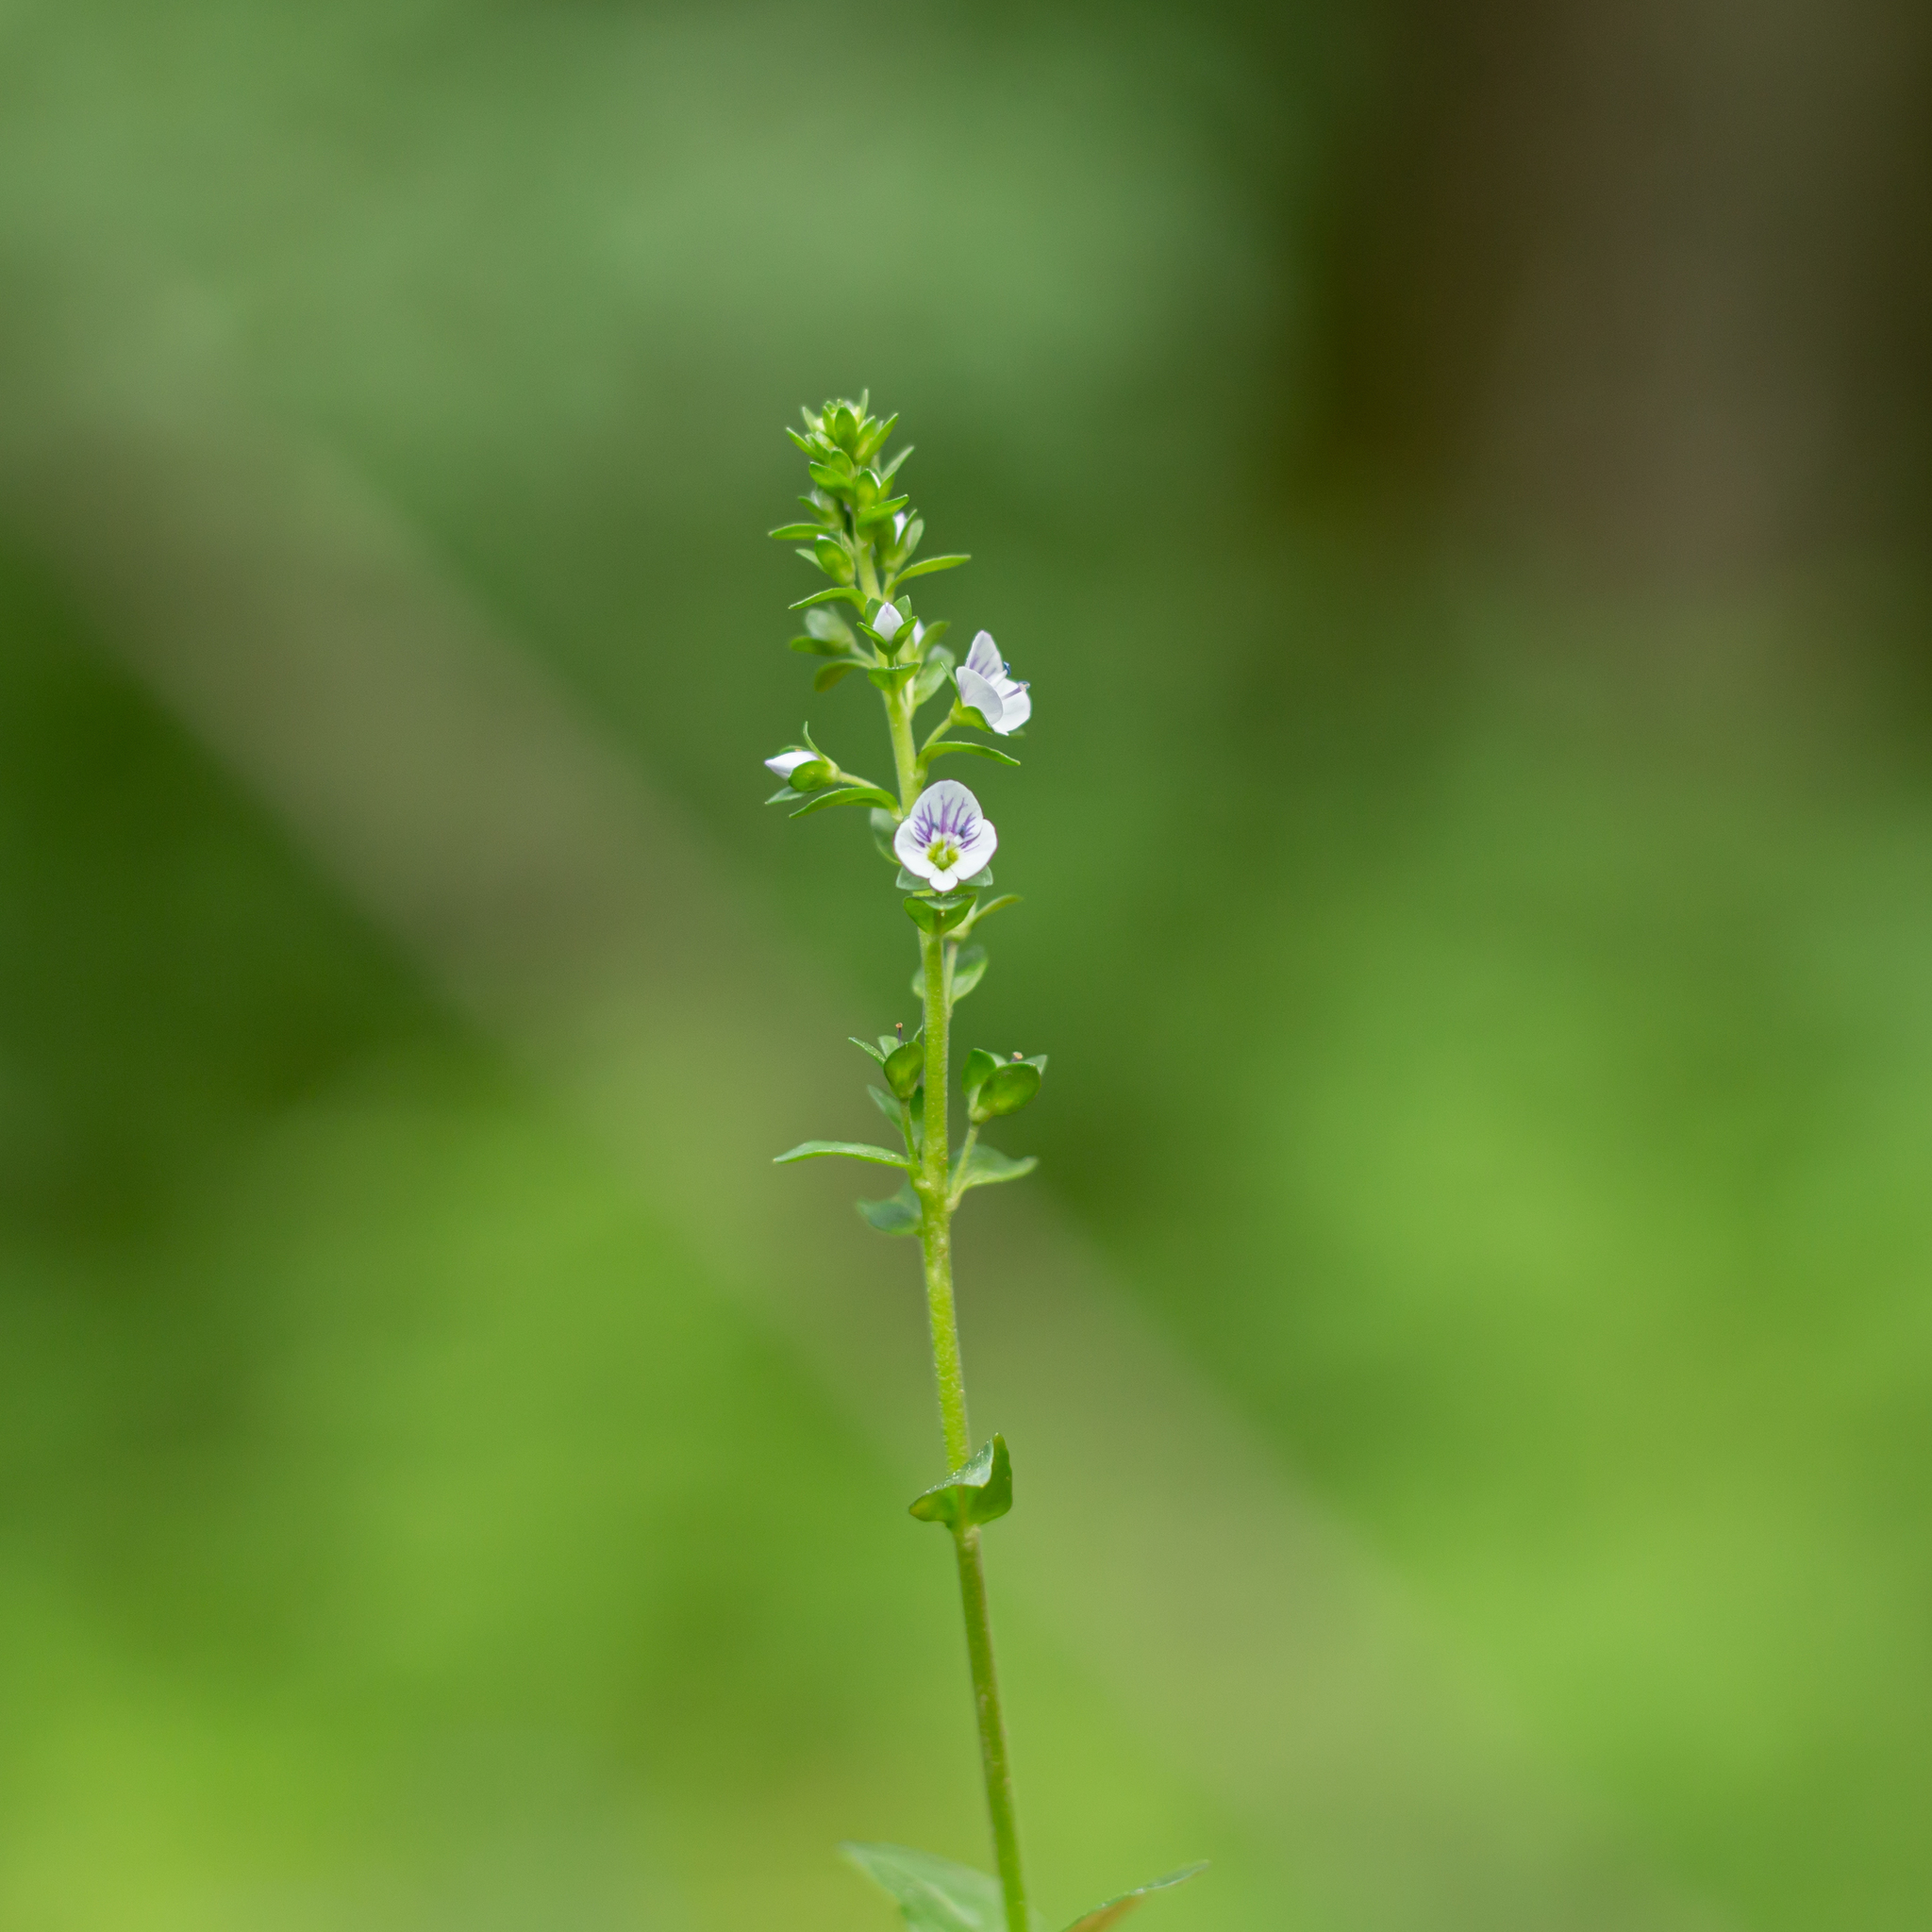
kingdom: Plantae
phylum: Tracheophyta
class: Magnoliopsida
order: Lamiales
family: Plantaginaceae
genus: Veronica
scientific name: Veronica serpyllifolia
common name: Thyme-leaved speedwell
